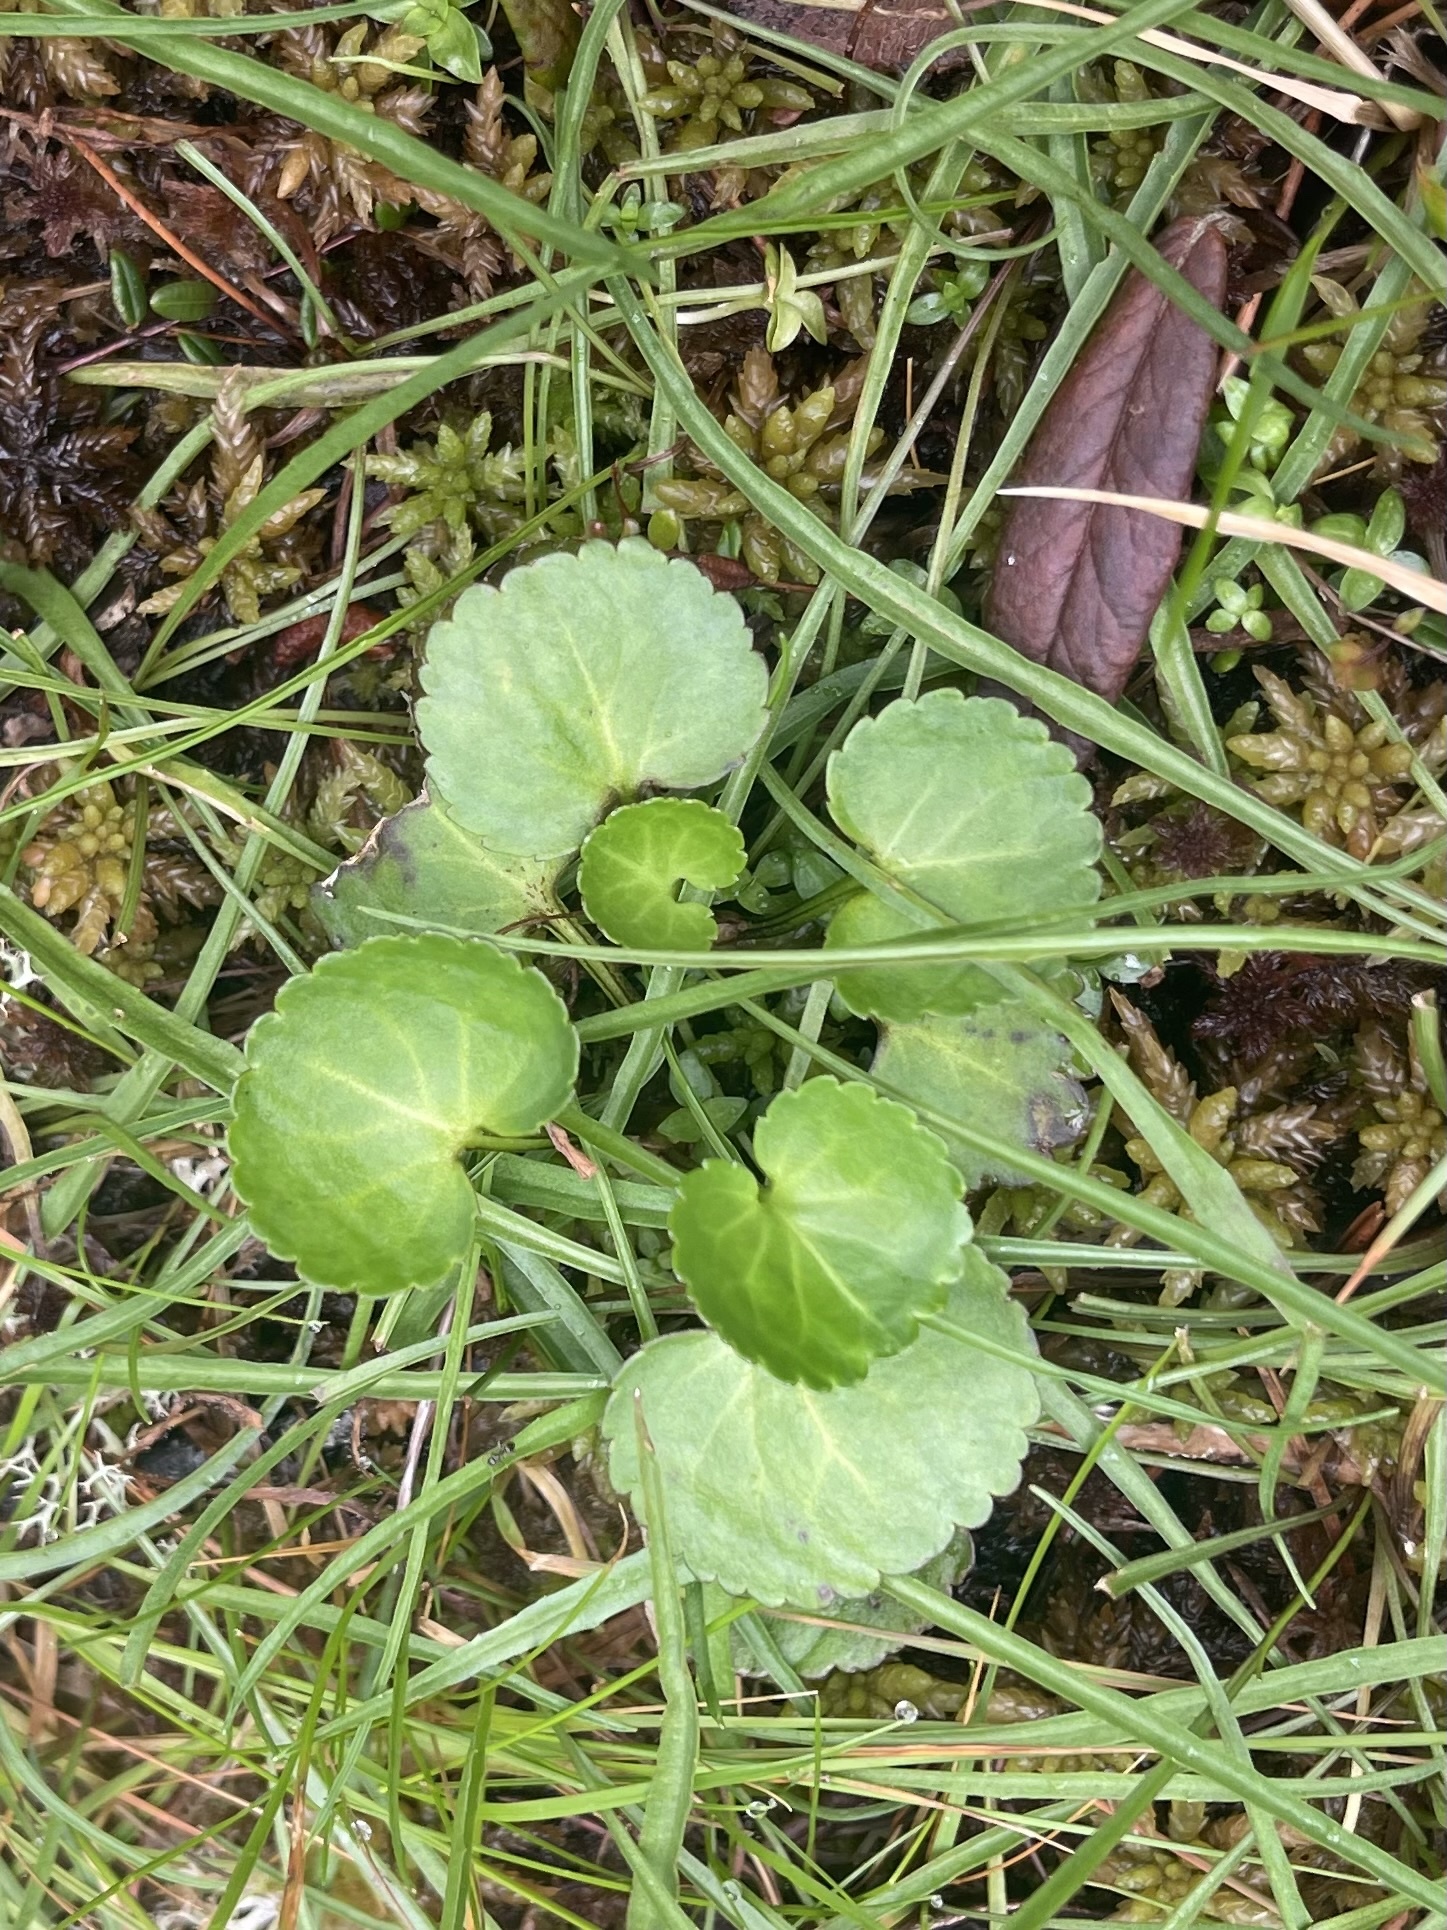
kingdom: Plantae
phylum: Tracheophyta
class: Magnoliopsida
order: Asterales
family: Menyanthaceae
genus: Nephrophyllidium
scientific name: Nephrophyllidium crista-galli
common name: Deer-cabbage
